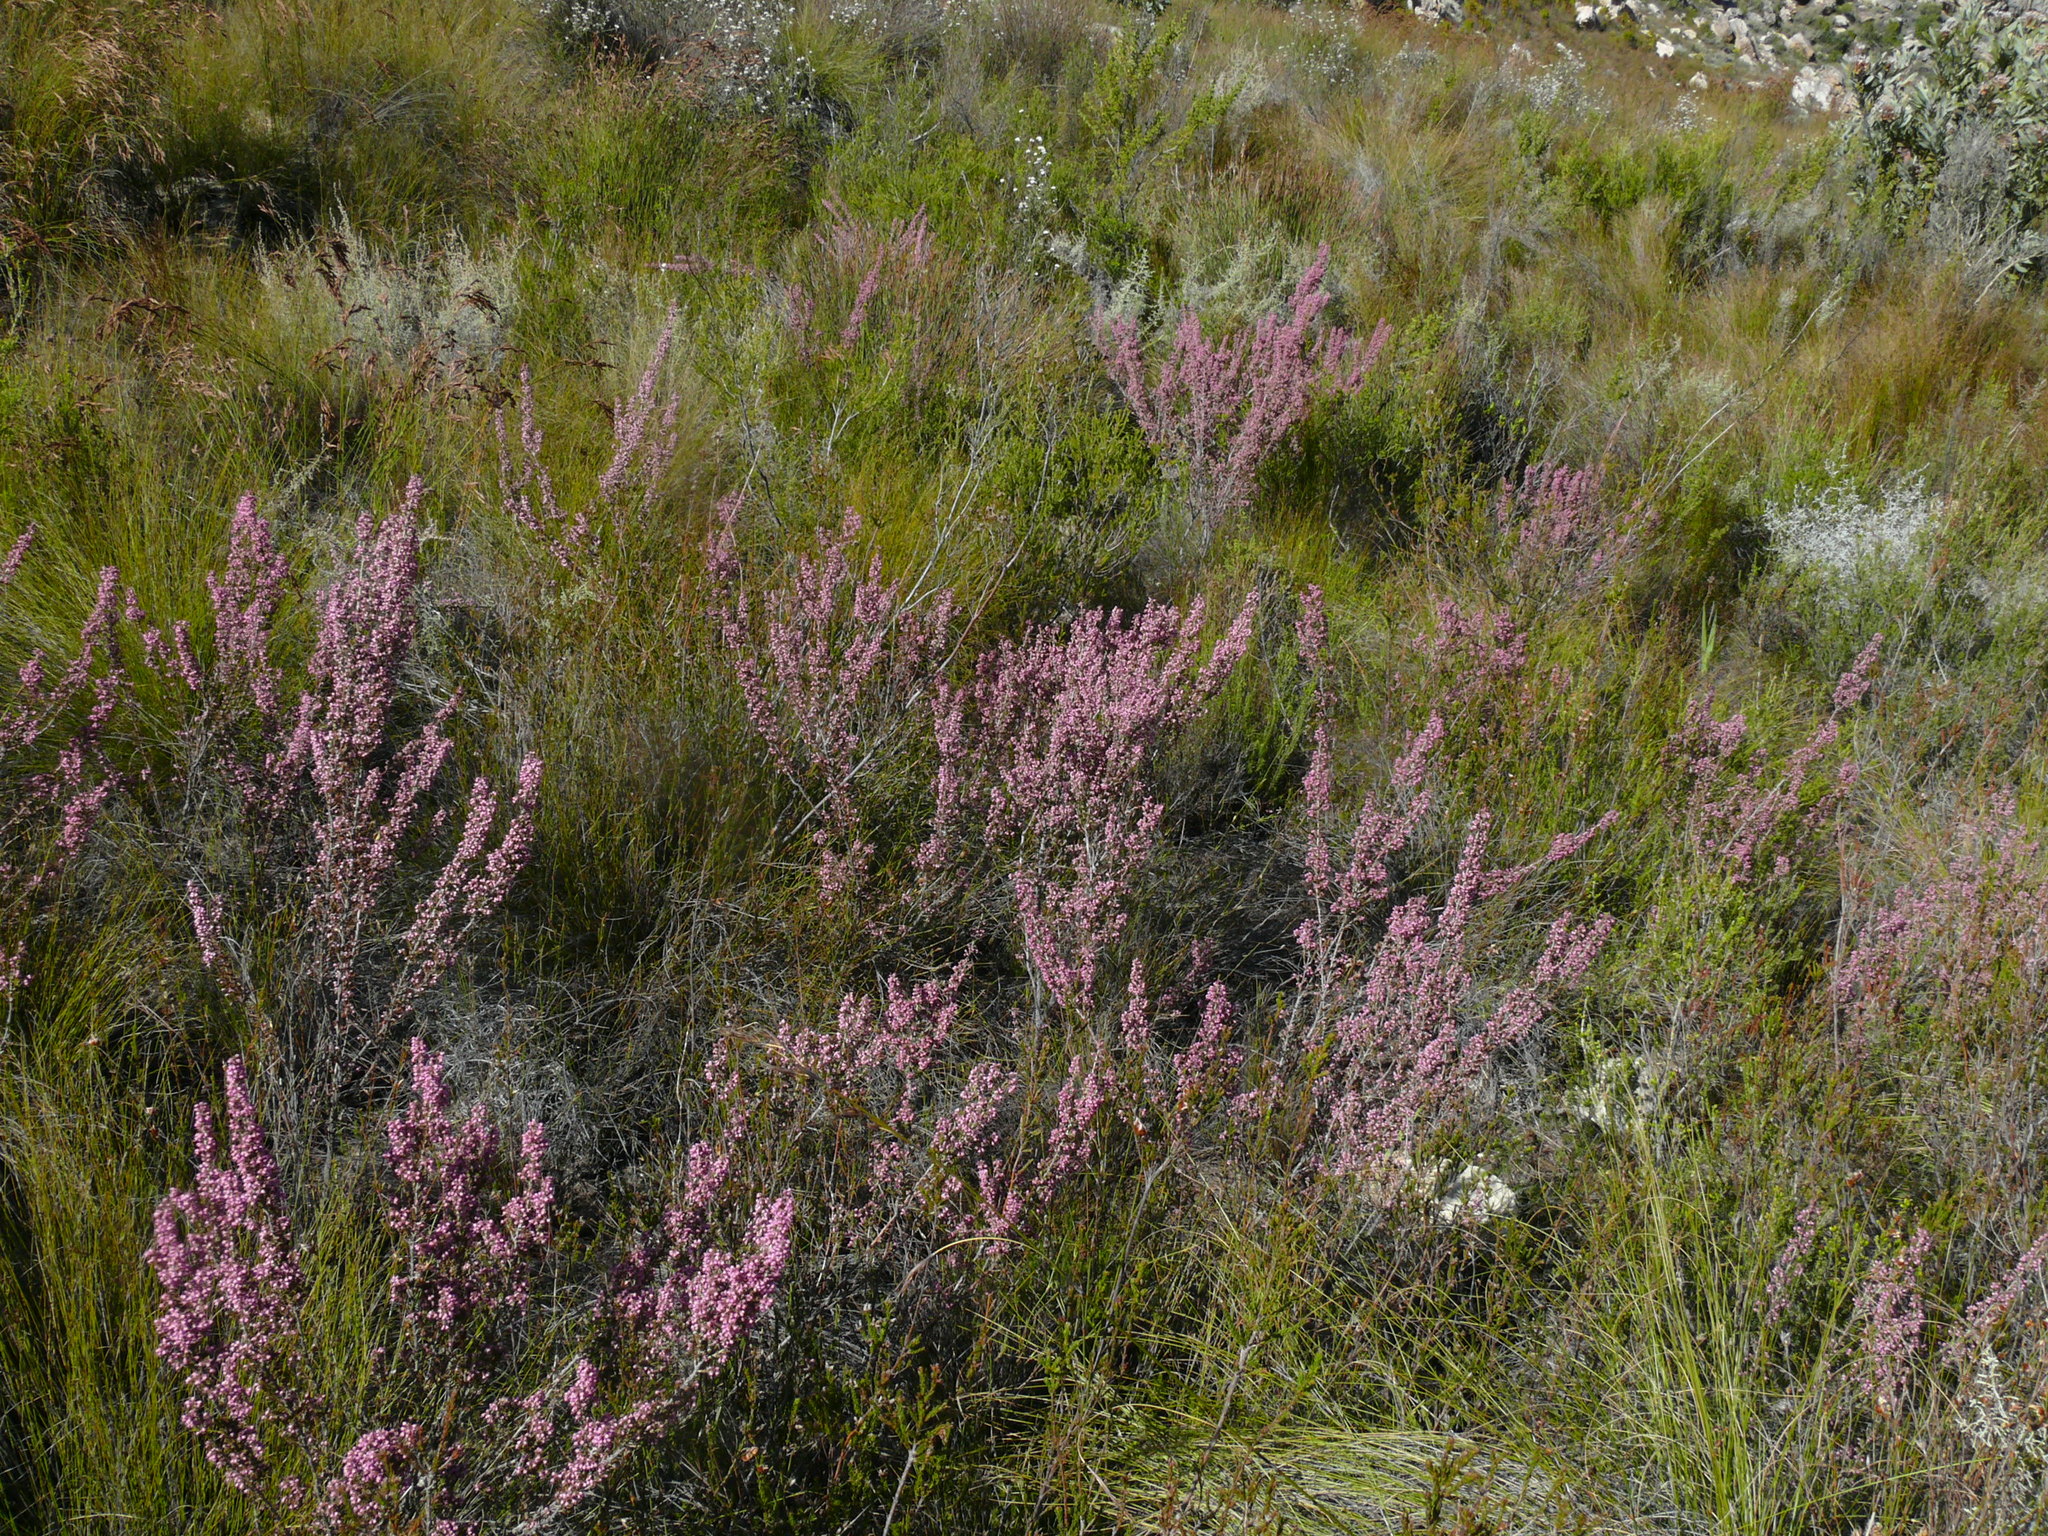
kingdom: Plantae
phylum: Tracheophyta
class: Magnoliopsida
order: Ericales
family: Ericaceae
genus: Erica
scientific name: Erica placentiflora
